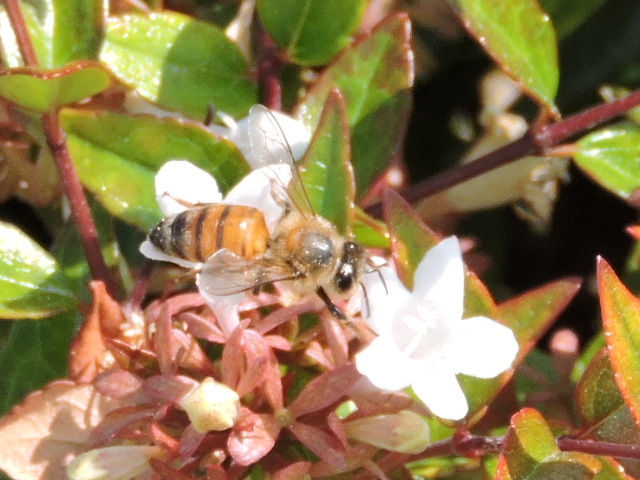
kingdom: Animalia
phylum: Arthropoda
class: Insecta
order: Hymenoptera
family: Apidae
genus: Apis
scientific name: Apis mellifera
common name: Honey bee
